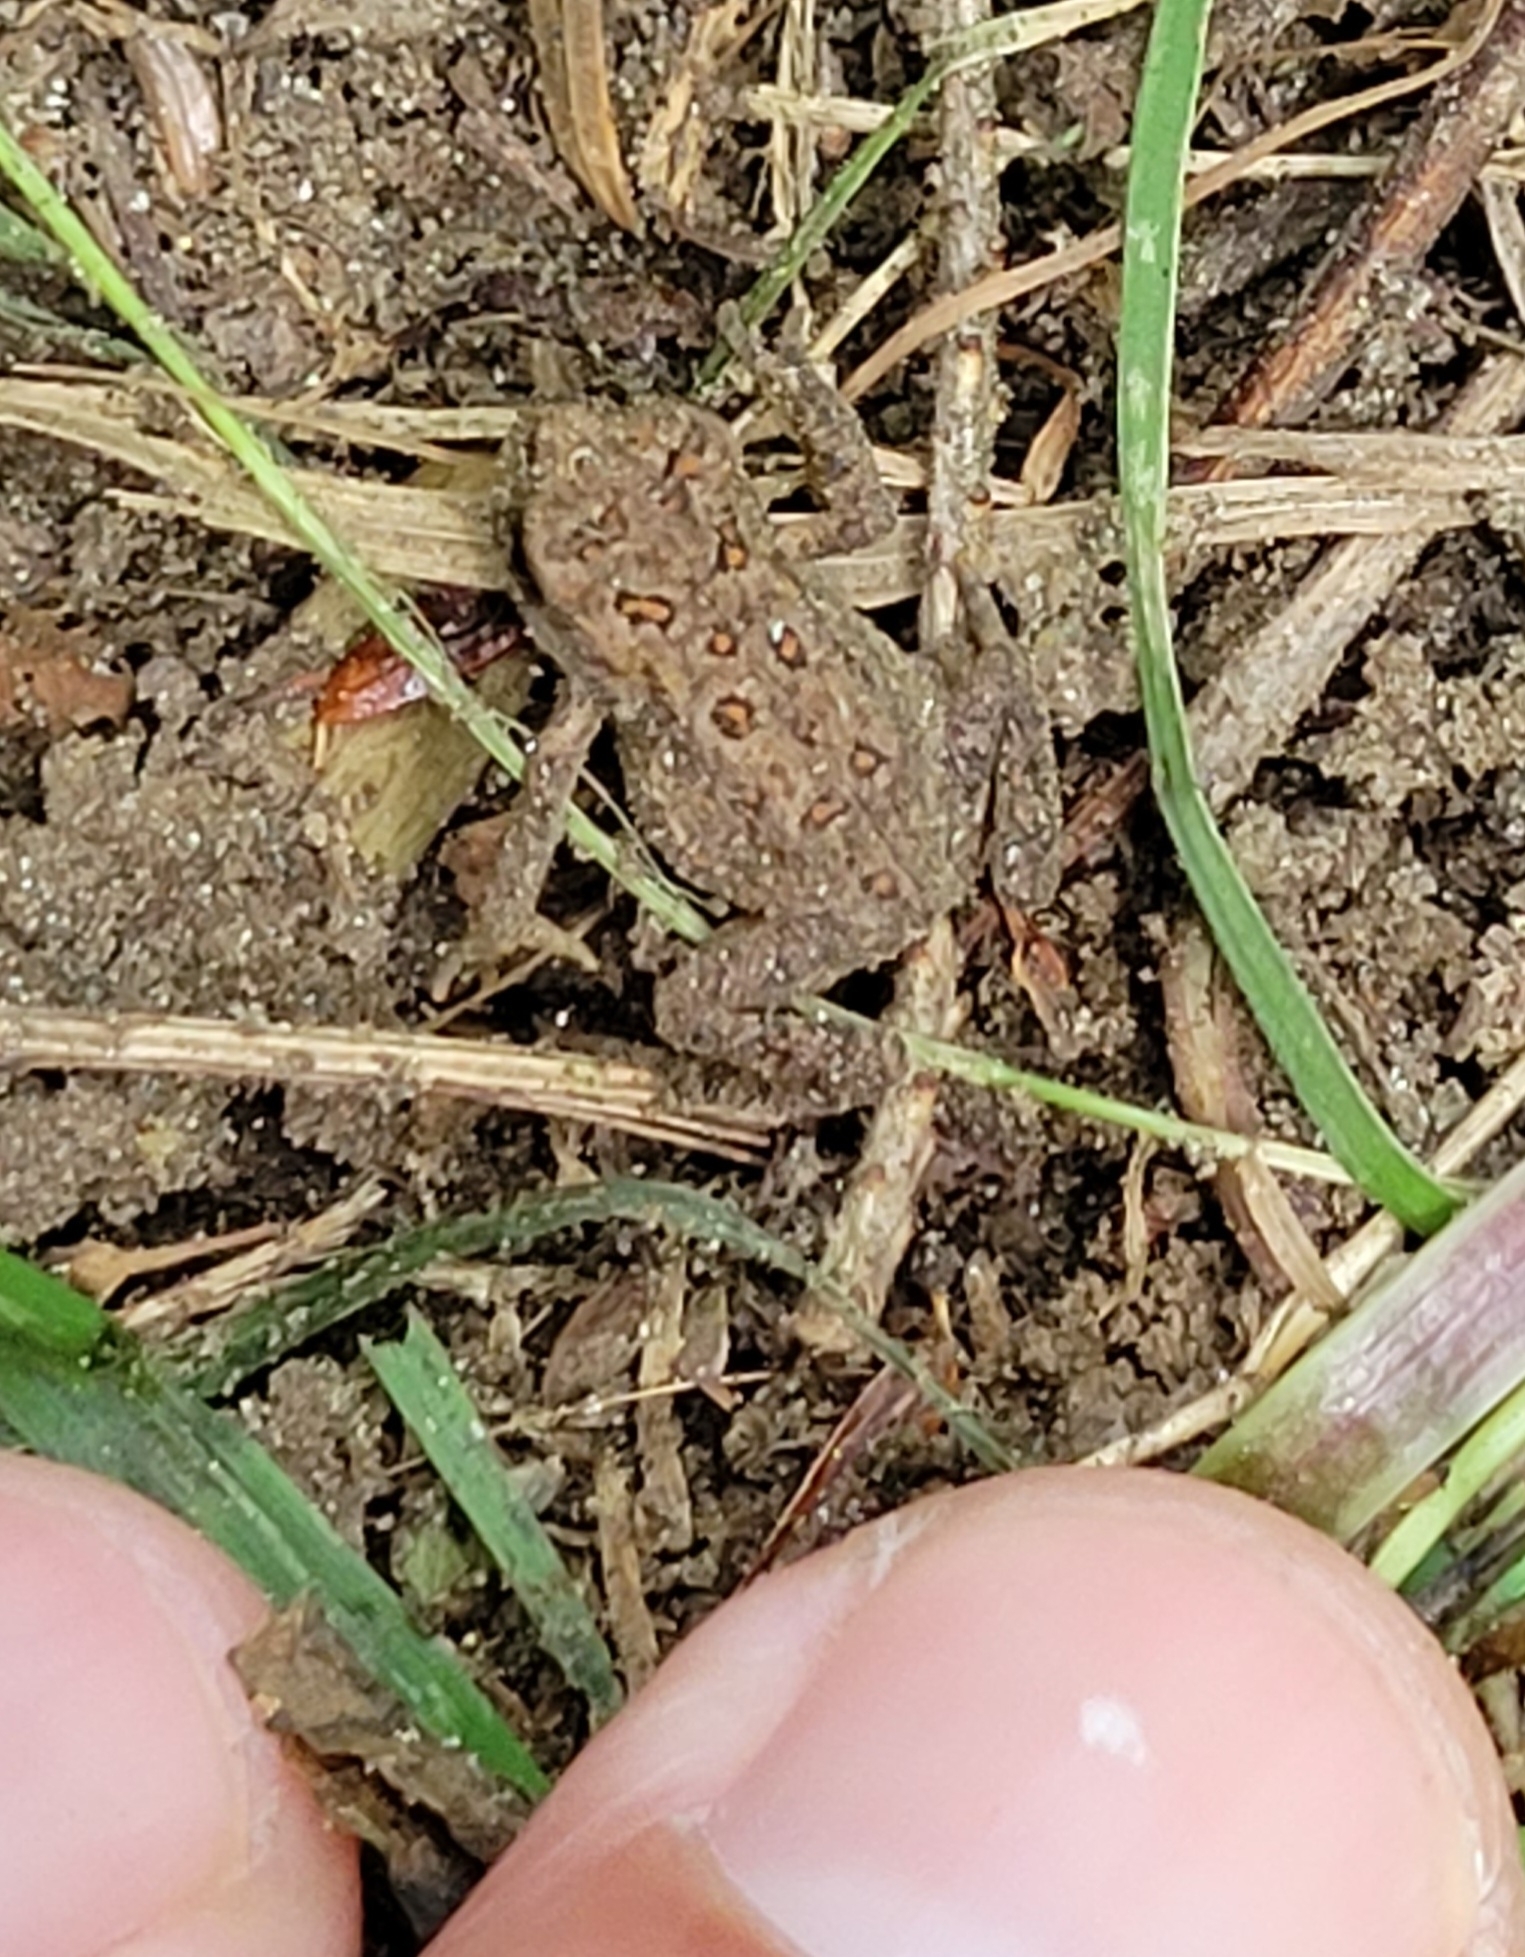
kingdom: Animalia
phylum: Chordata
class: Amphibia
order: Anura
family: Bufonidae
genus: Anaxyrus
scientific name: Anaxyrus americanus
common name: American toad
